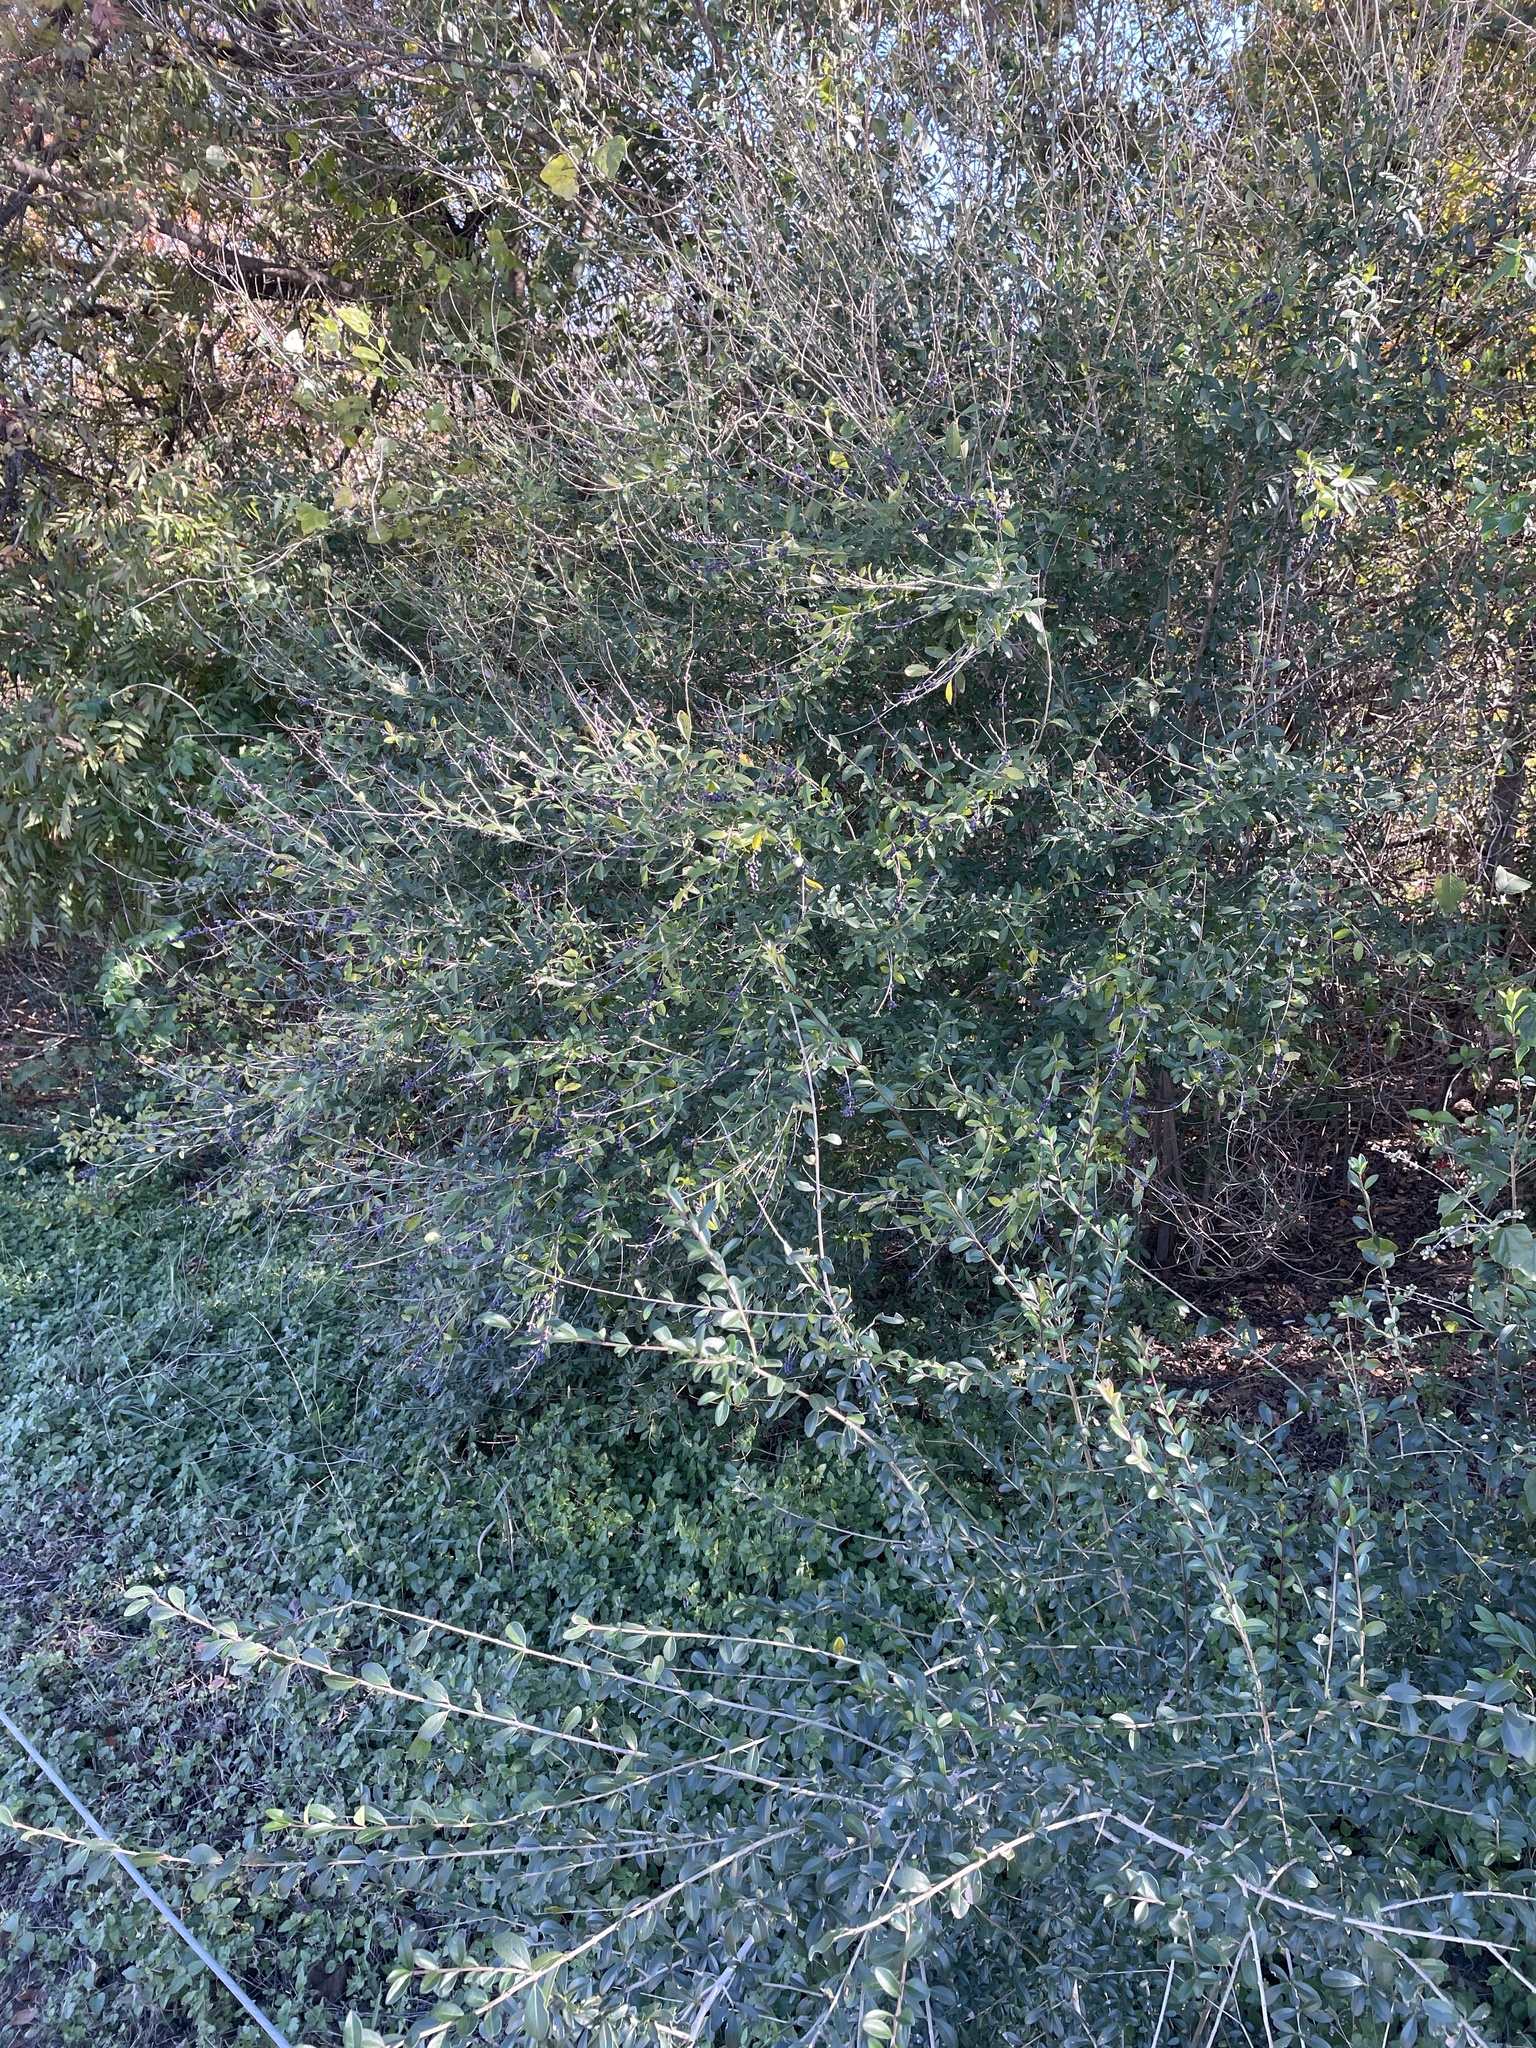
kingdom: Plantae
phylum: Tracheophyta
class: Magnoliopsida
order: Lamiales
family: Oleaceae
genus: Ligustrum
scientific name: Ligustrum quihoui
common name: Waxyleaf privet
